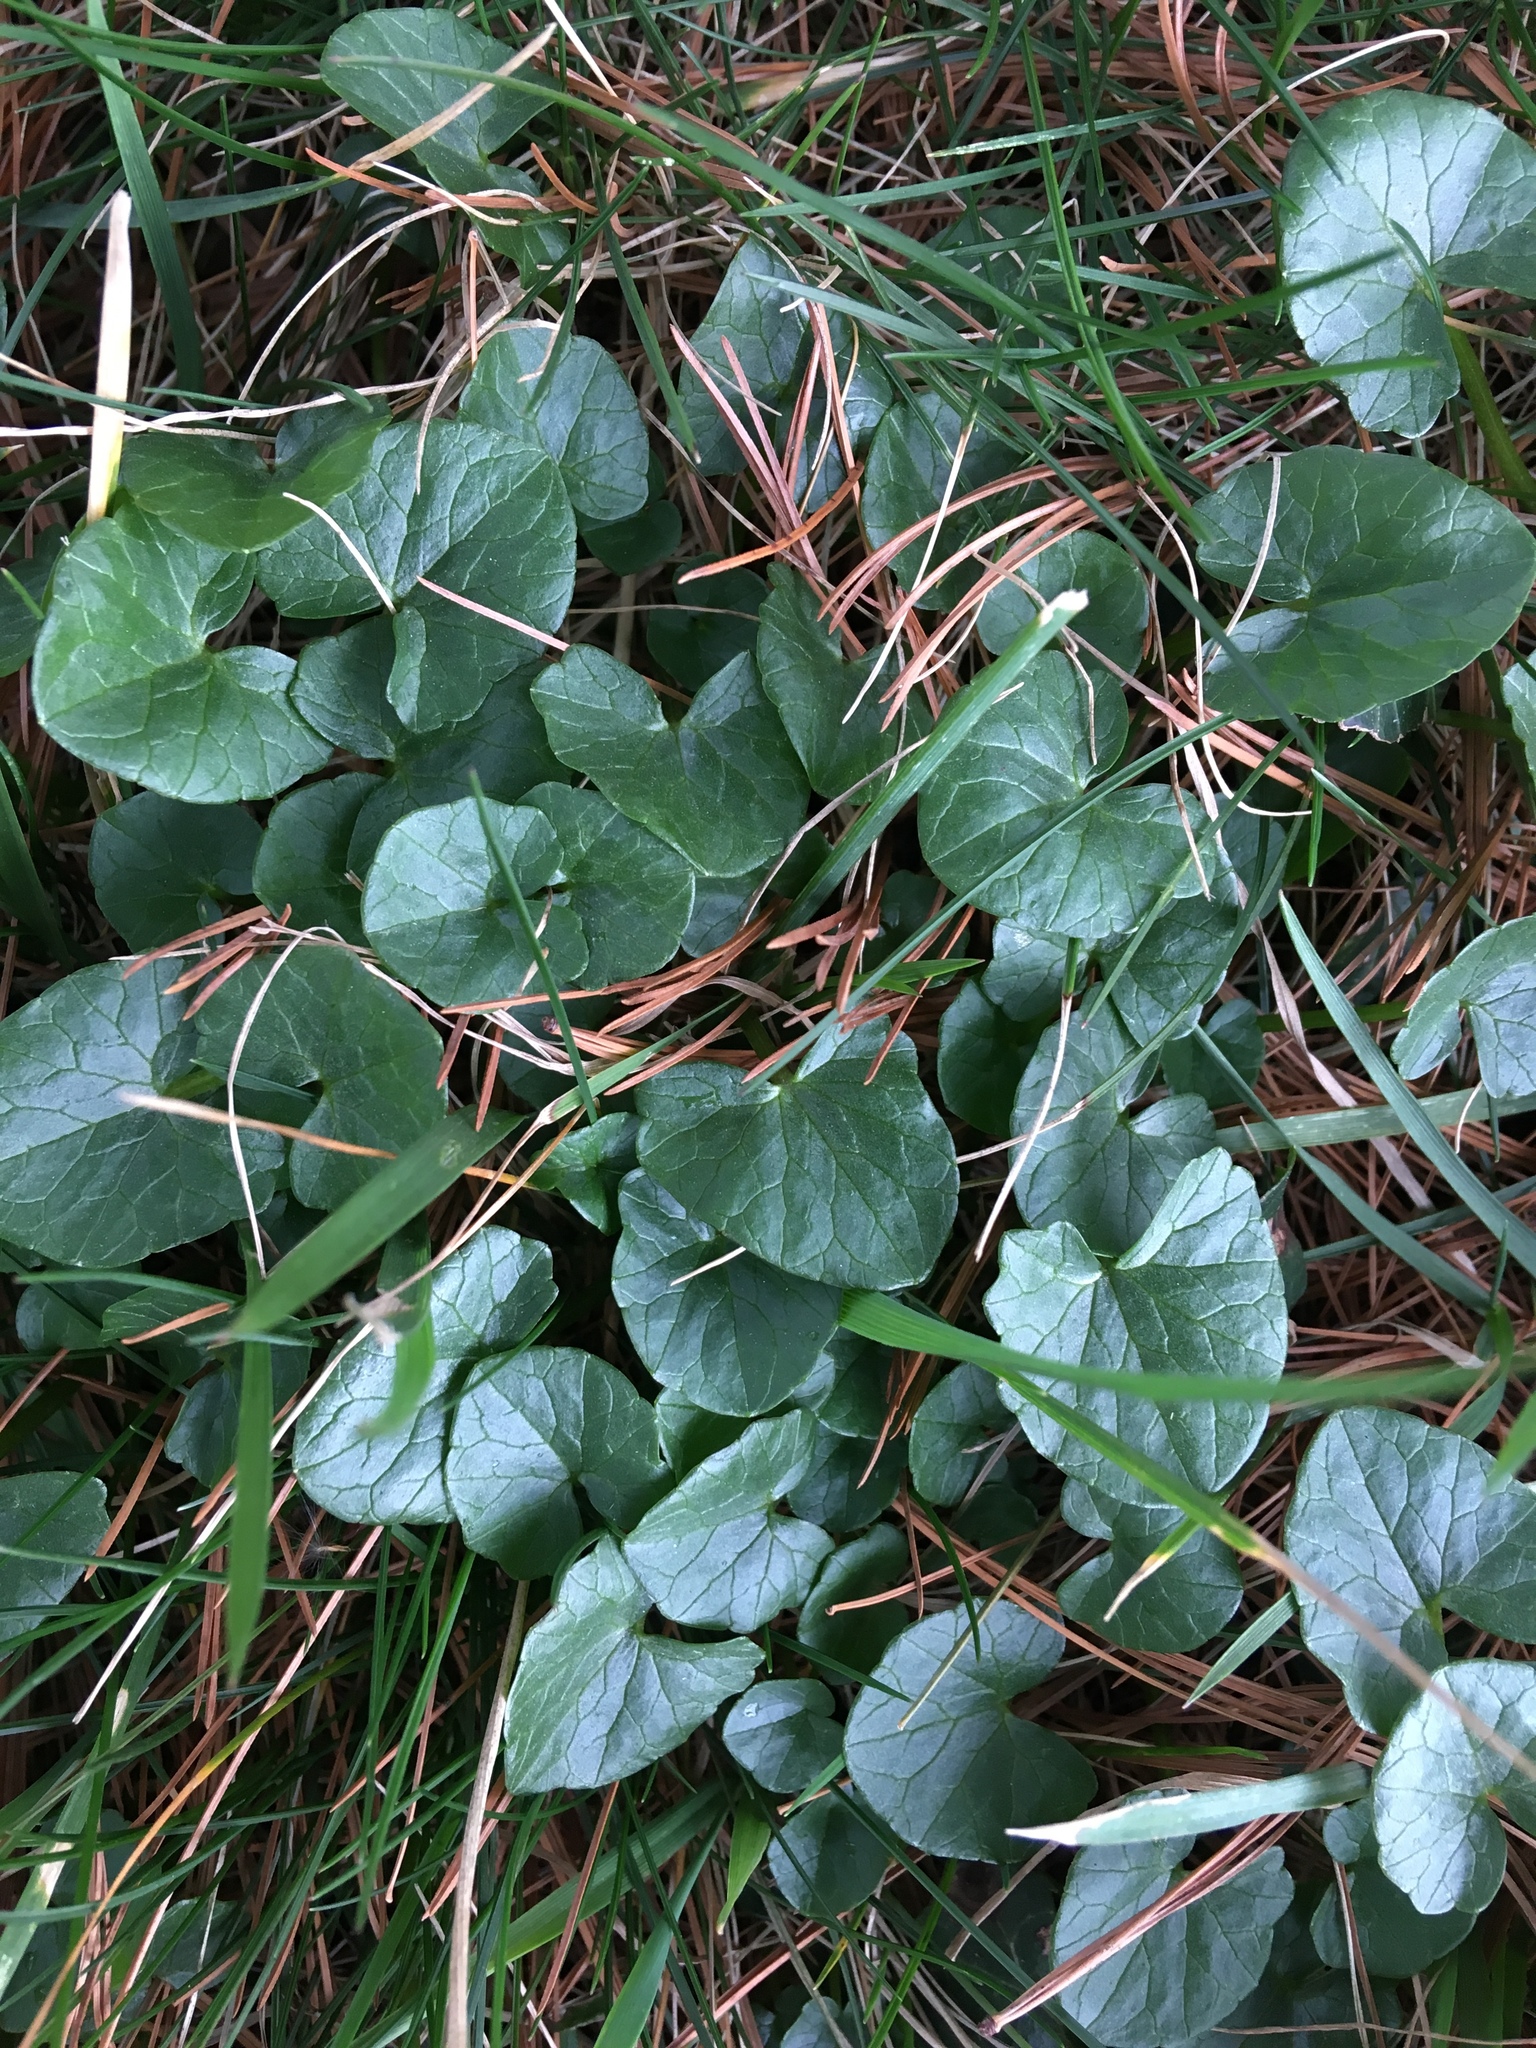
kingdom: Plantae
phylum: Tracheophyta
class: Magnoliopsida
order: Ranunculales
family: Ranunculaceae
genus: Ficaria
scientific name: Ficaria verna
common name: Lesser celandine
